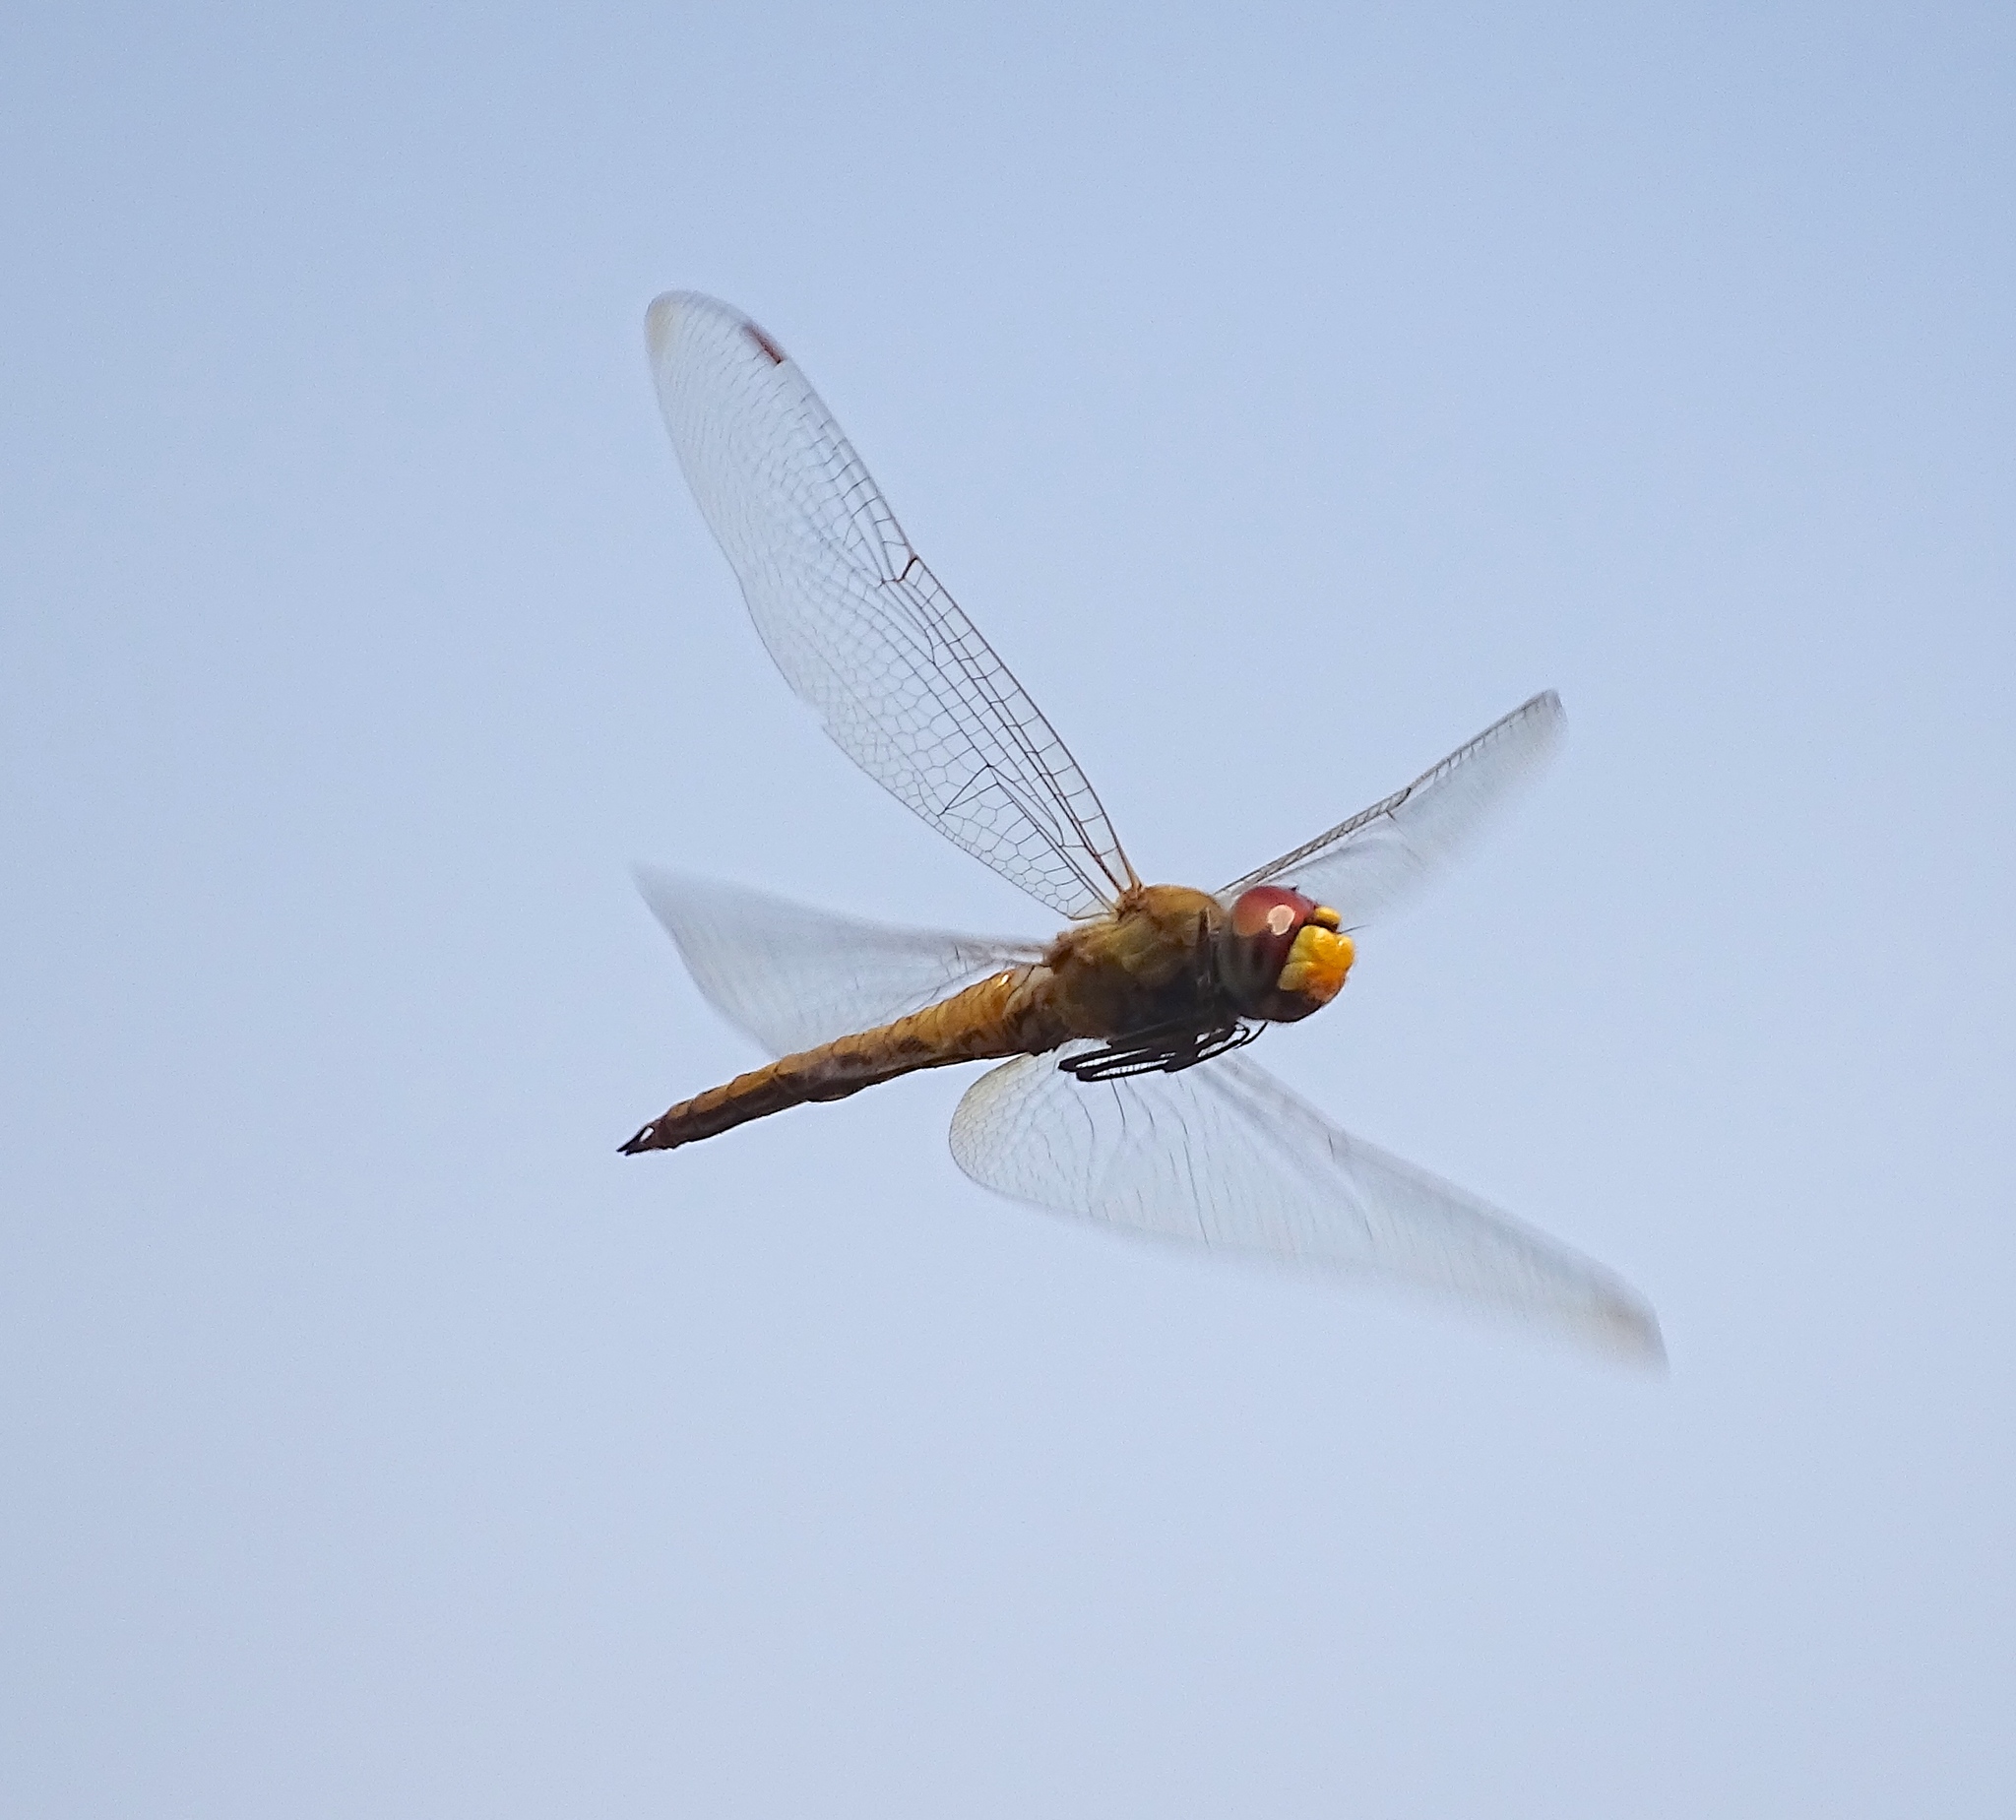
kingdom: Animalia
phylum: Arthropoda
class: Insecta
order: Odonata
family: Libellulidae
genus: Pantala
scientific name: Pantala flavescens
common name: Wandering glider
